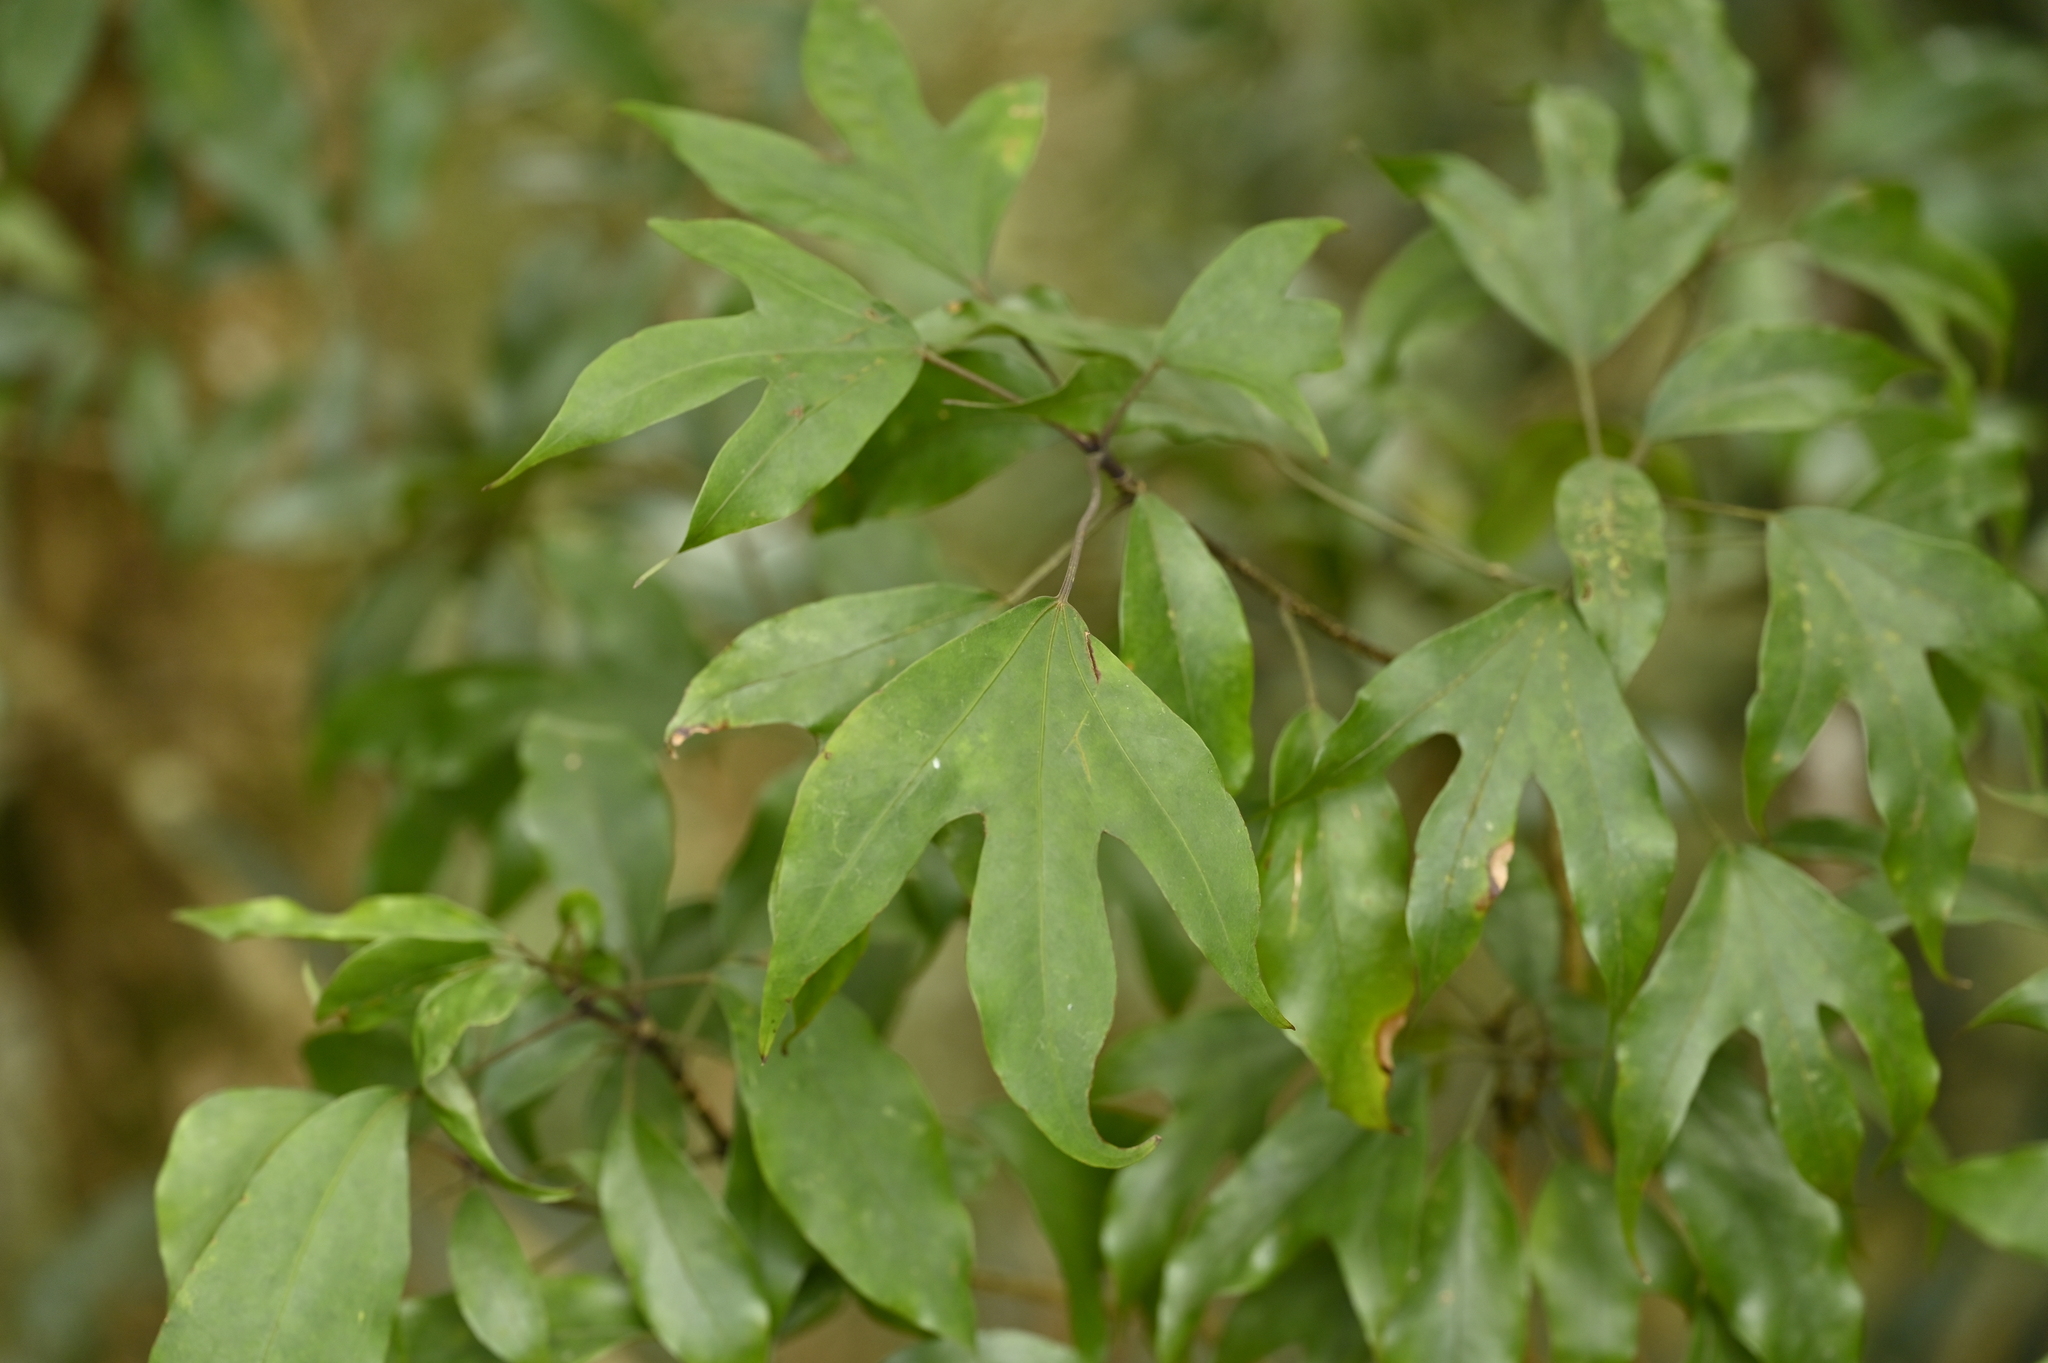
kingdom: Plantae
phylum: Tracheophyta
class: Magnoliopsida
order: Apiales
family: Araliaceae
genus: Dendropanax
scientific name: Dendropanax dentiger
